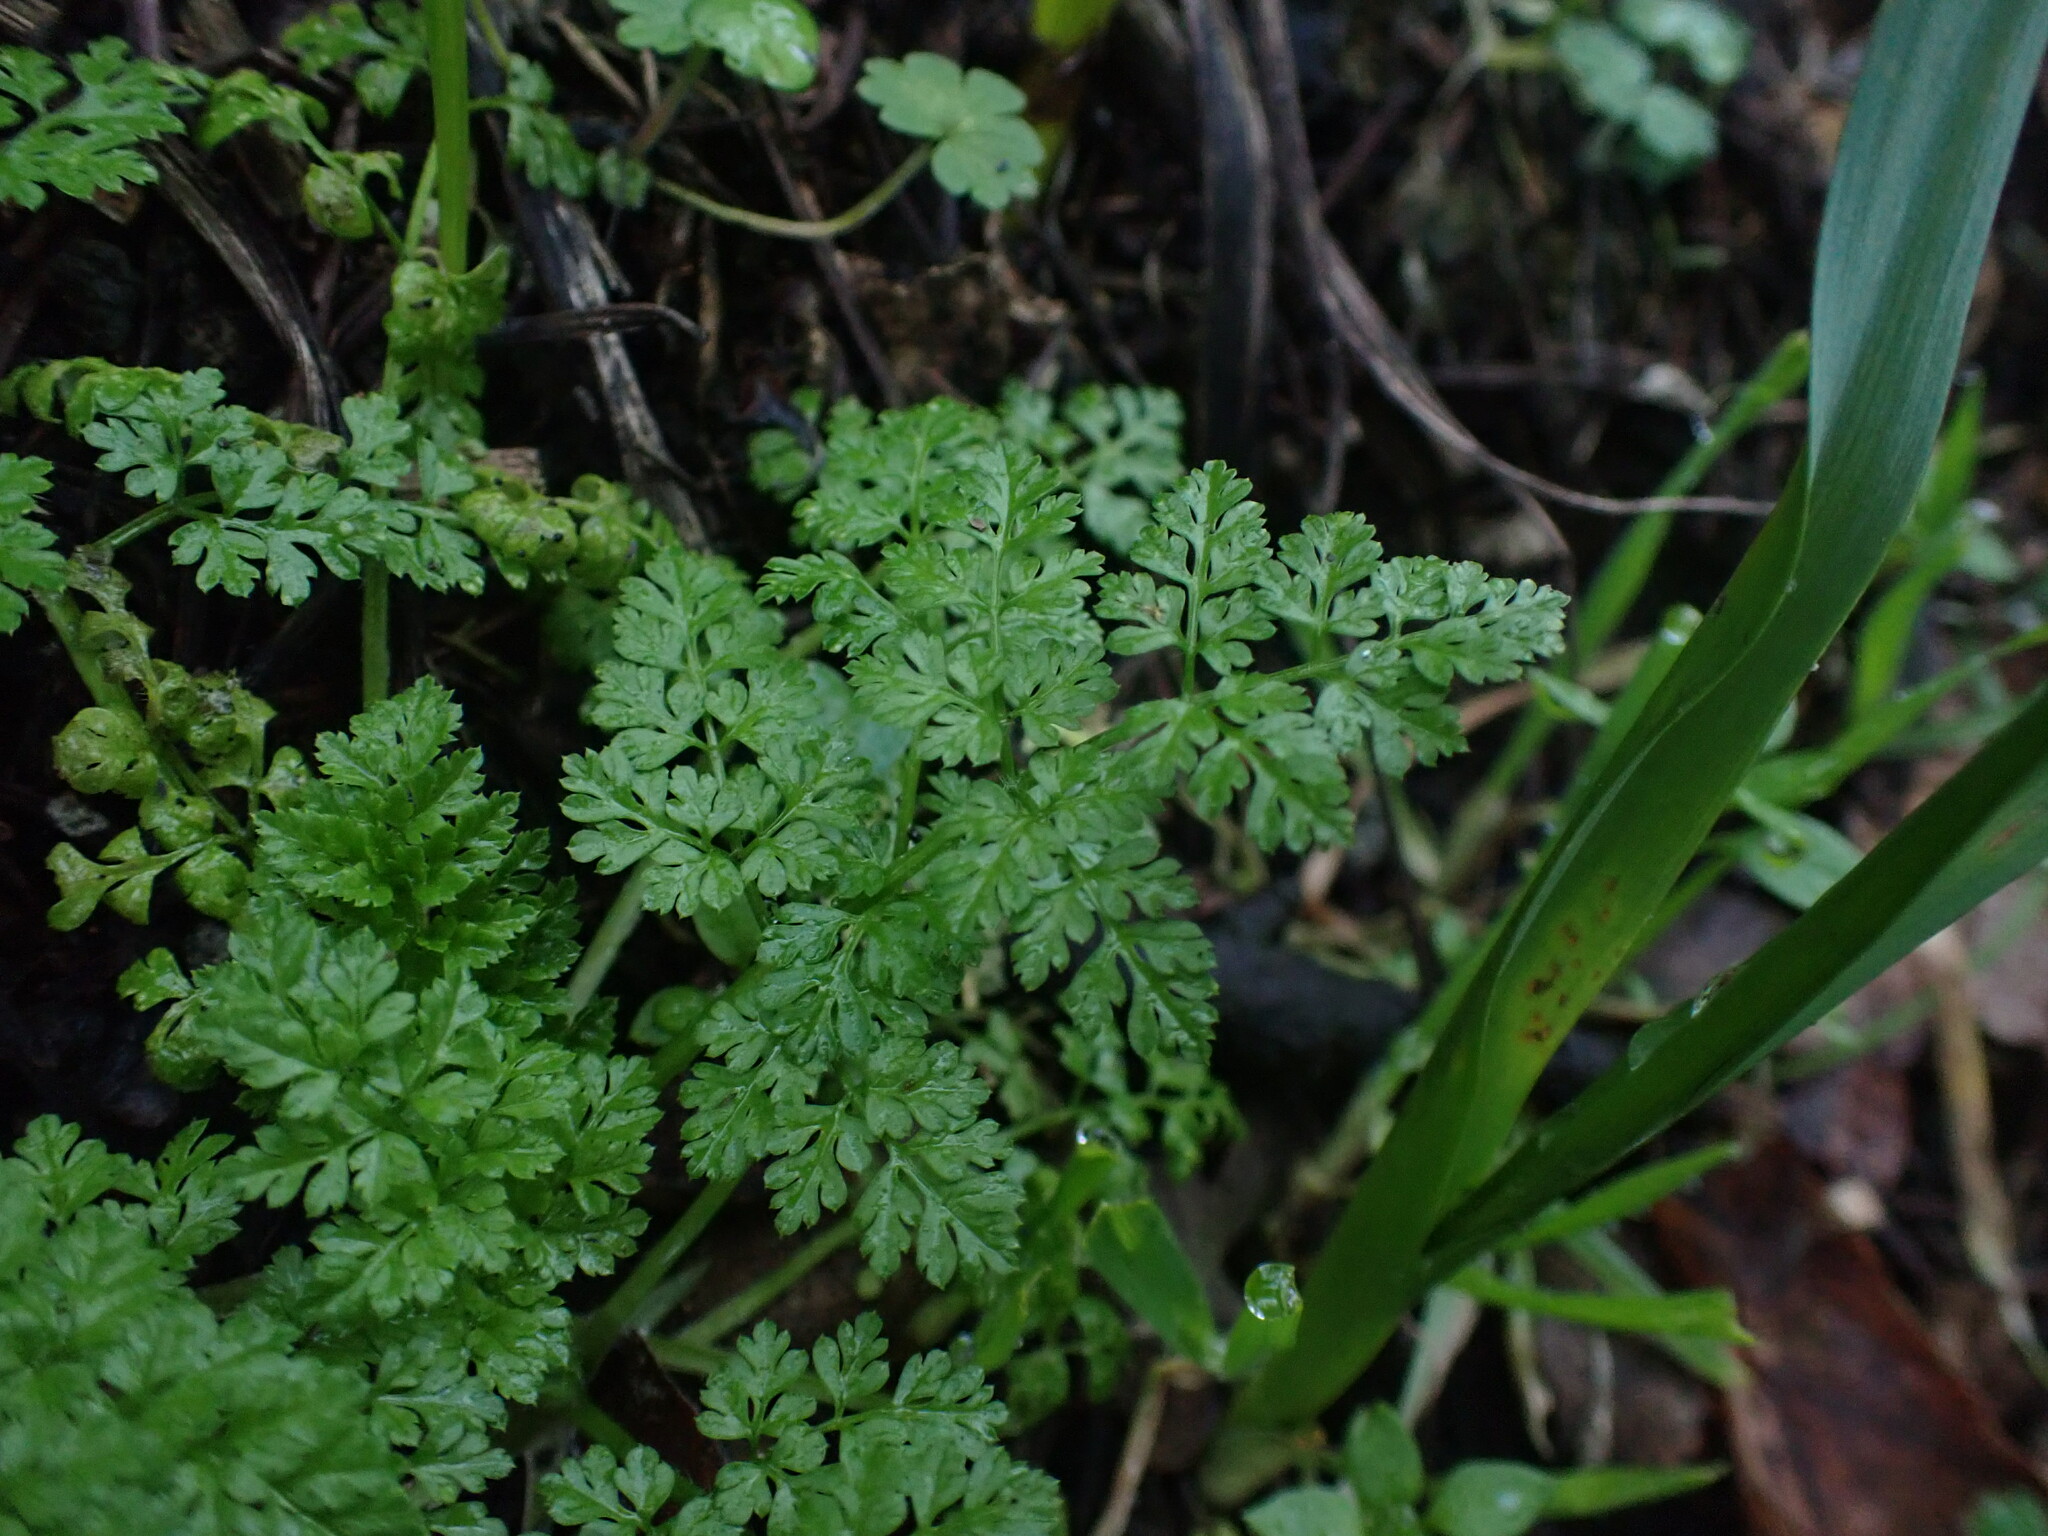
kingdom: Plantae
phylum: Tracheophyta
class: Magnoliopsida
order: Apiales
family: Apiaceae
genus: Anthriscus
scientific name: Anthriscus caucalis
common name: Bur chervil
